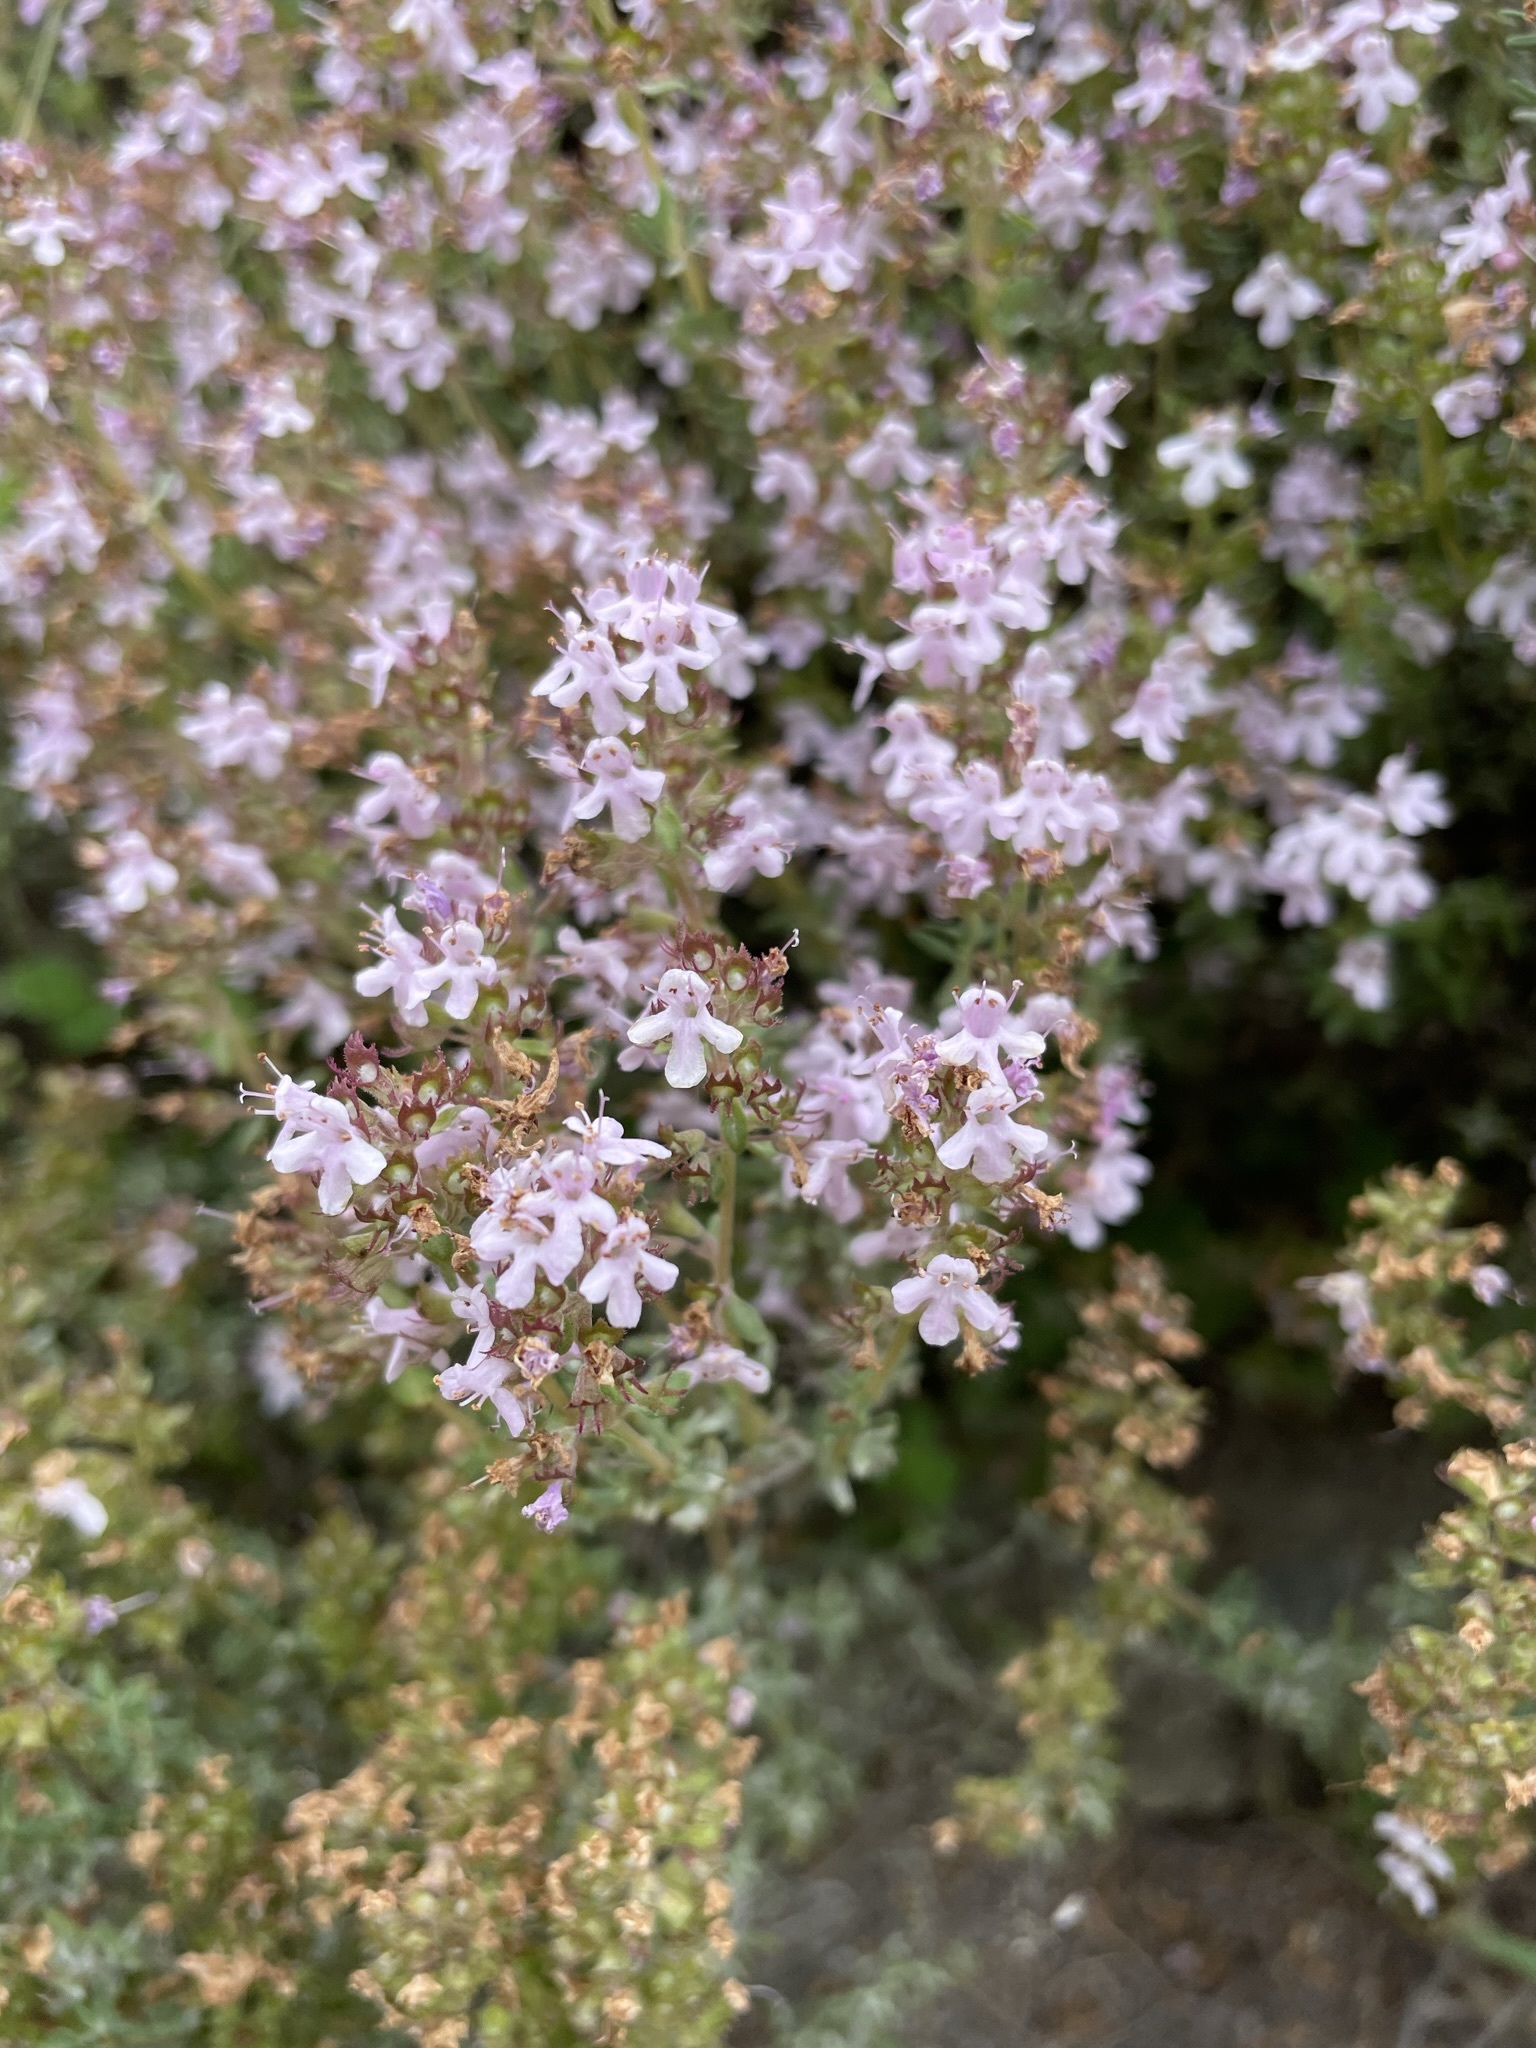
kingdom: Plantae
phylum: Tracheophyta
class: Magnoliopsida
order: Lamiales
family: Lamiaceae
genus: Thymus
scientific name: Thymus vulgaris
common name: Garden thyme
